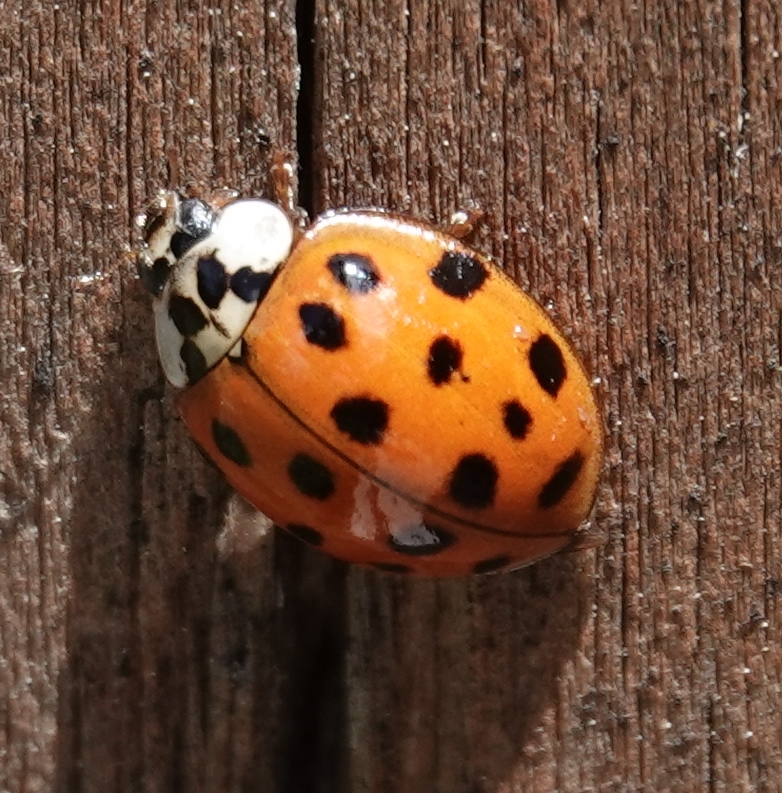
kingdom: Animalia
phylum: Arthropoda
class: Insecta
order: Coleoptera
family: Coccinellidae
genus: Harmonia
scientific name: Harmonia axyridis
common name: Harlequin ladybird
